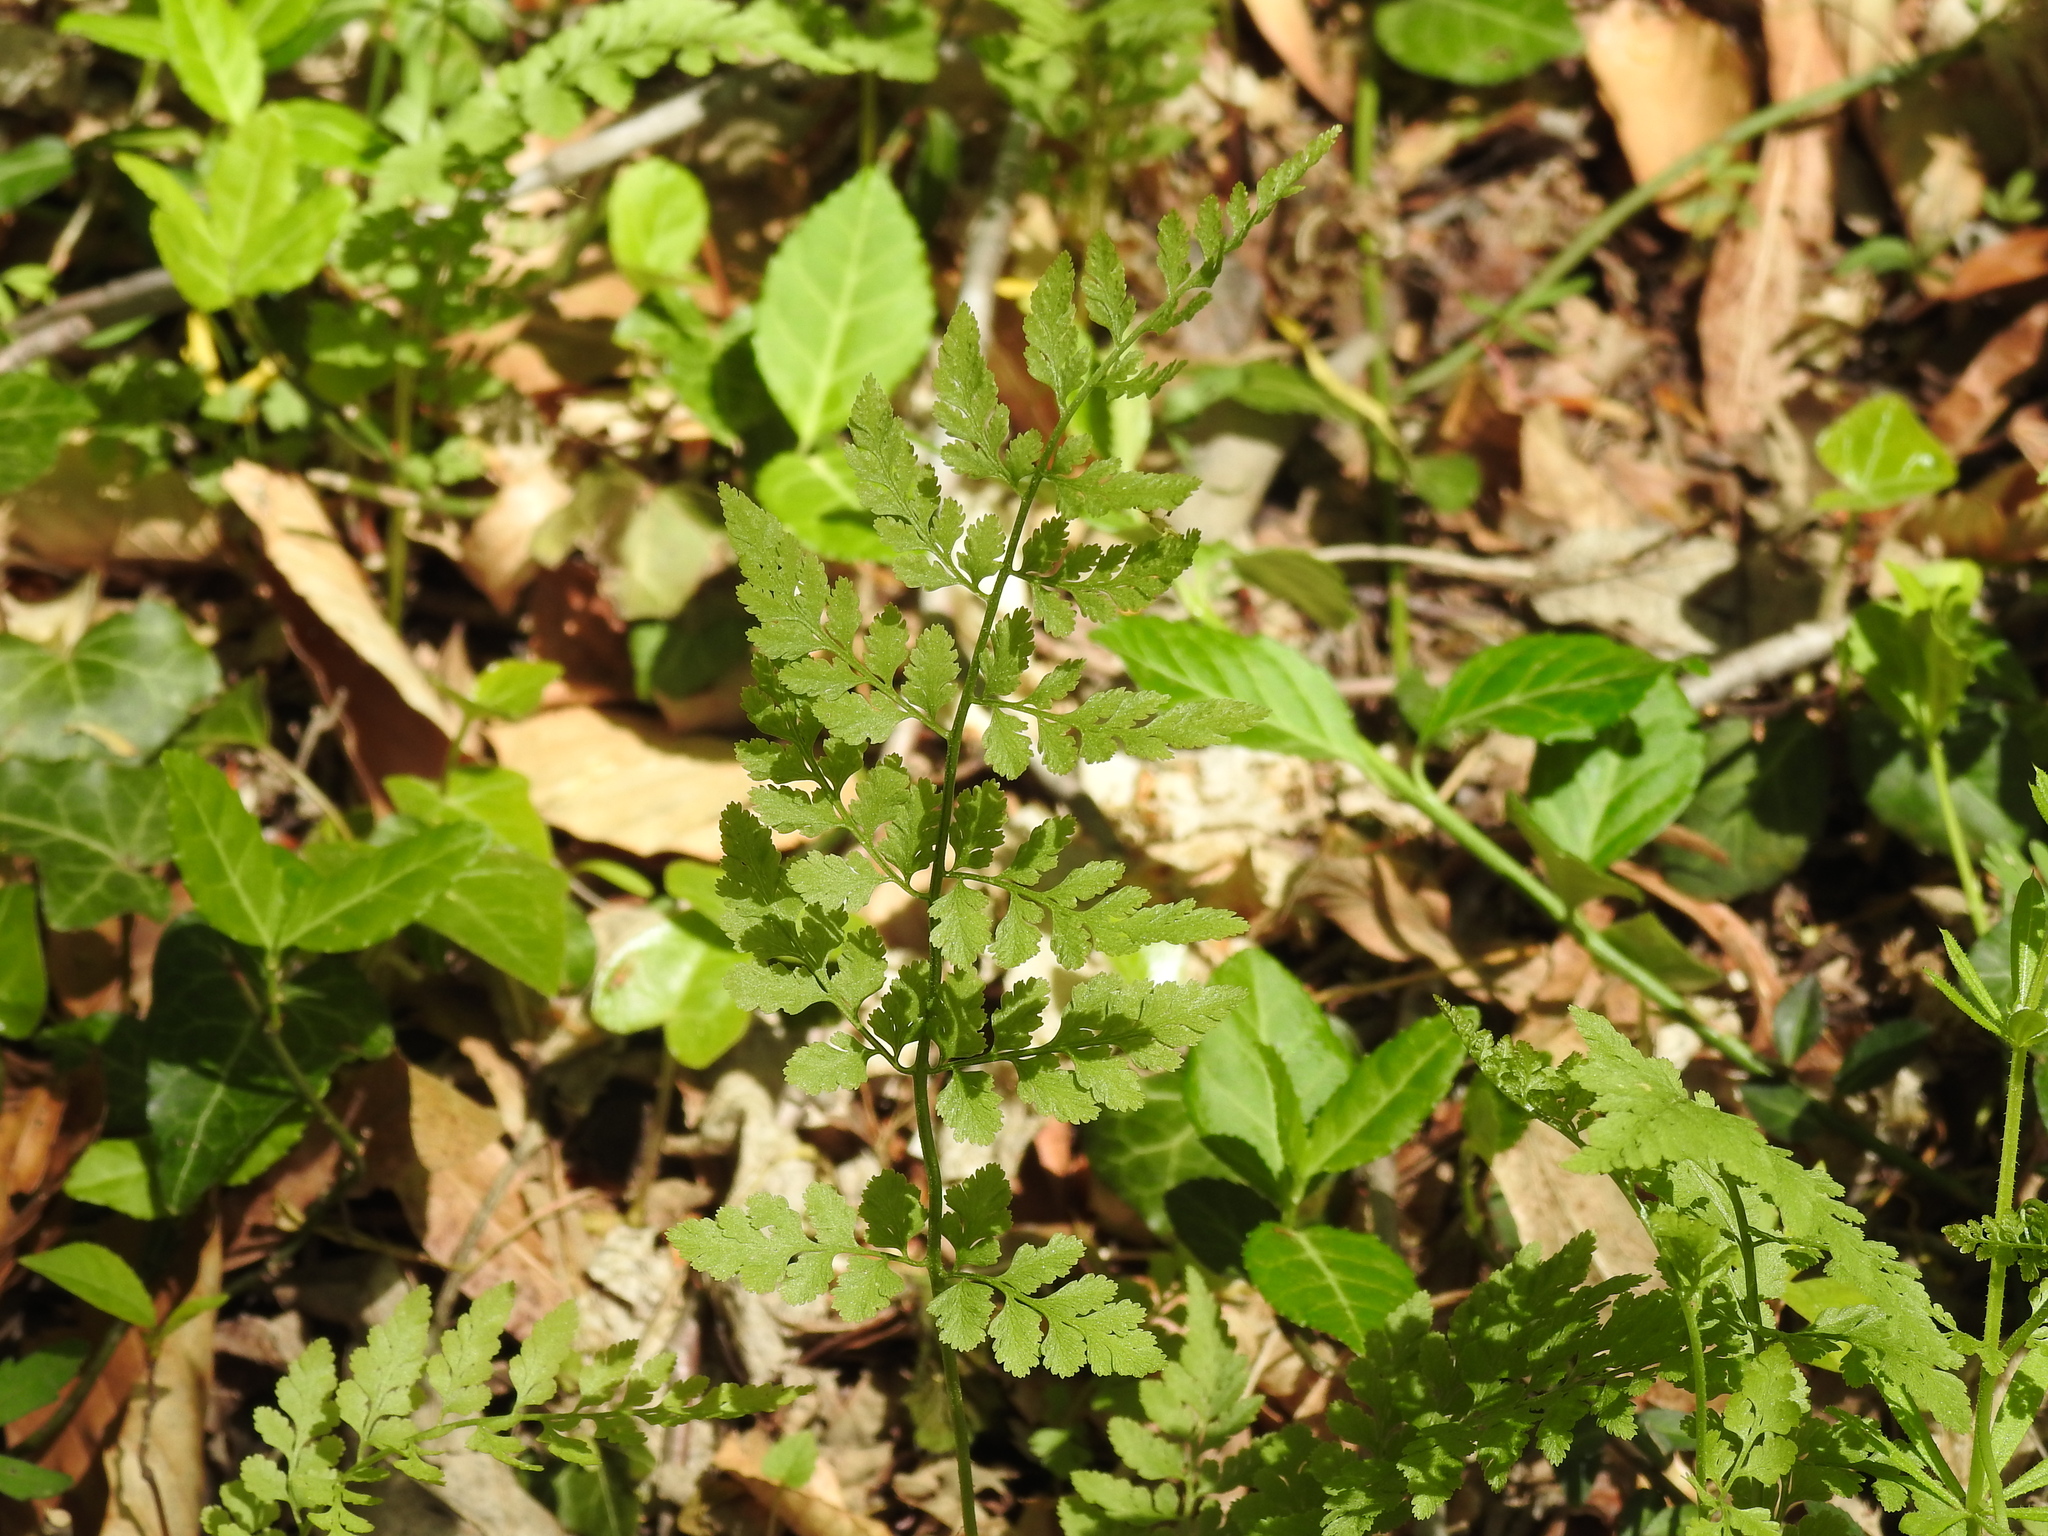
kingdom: Plantae
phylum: Tracheophyta
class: Polypodiopsida
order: Polypodiales
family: Cystopteridaceae
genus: Cystopteris
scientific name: Cystopteris protrusa
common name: Lowland brittle fern
